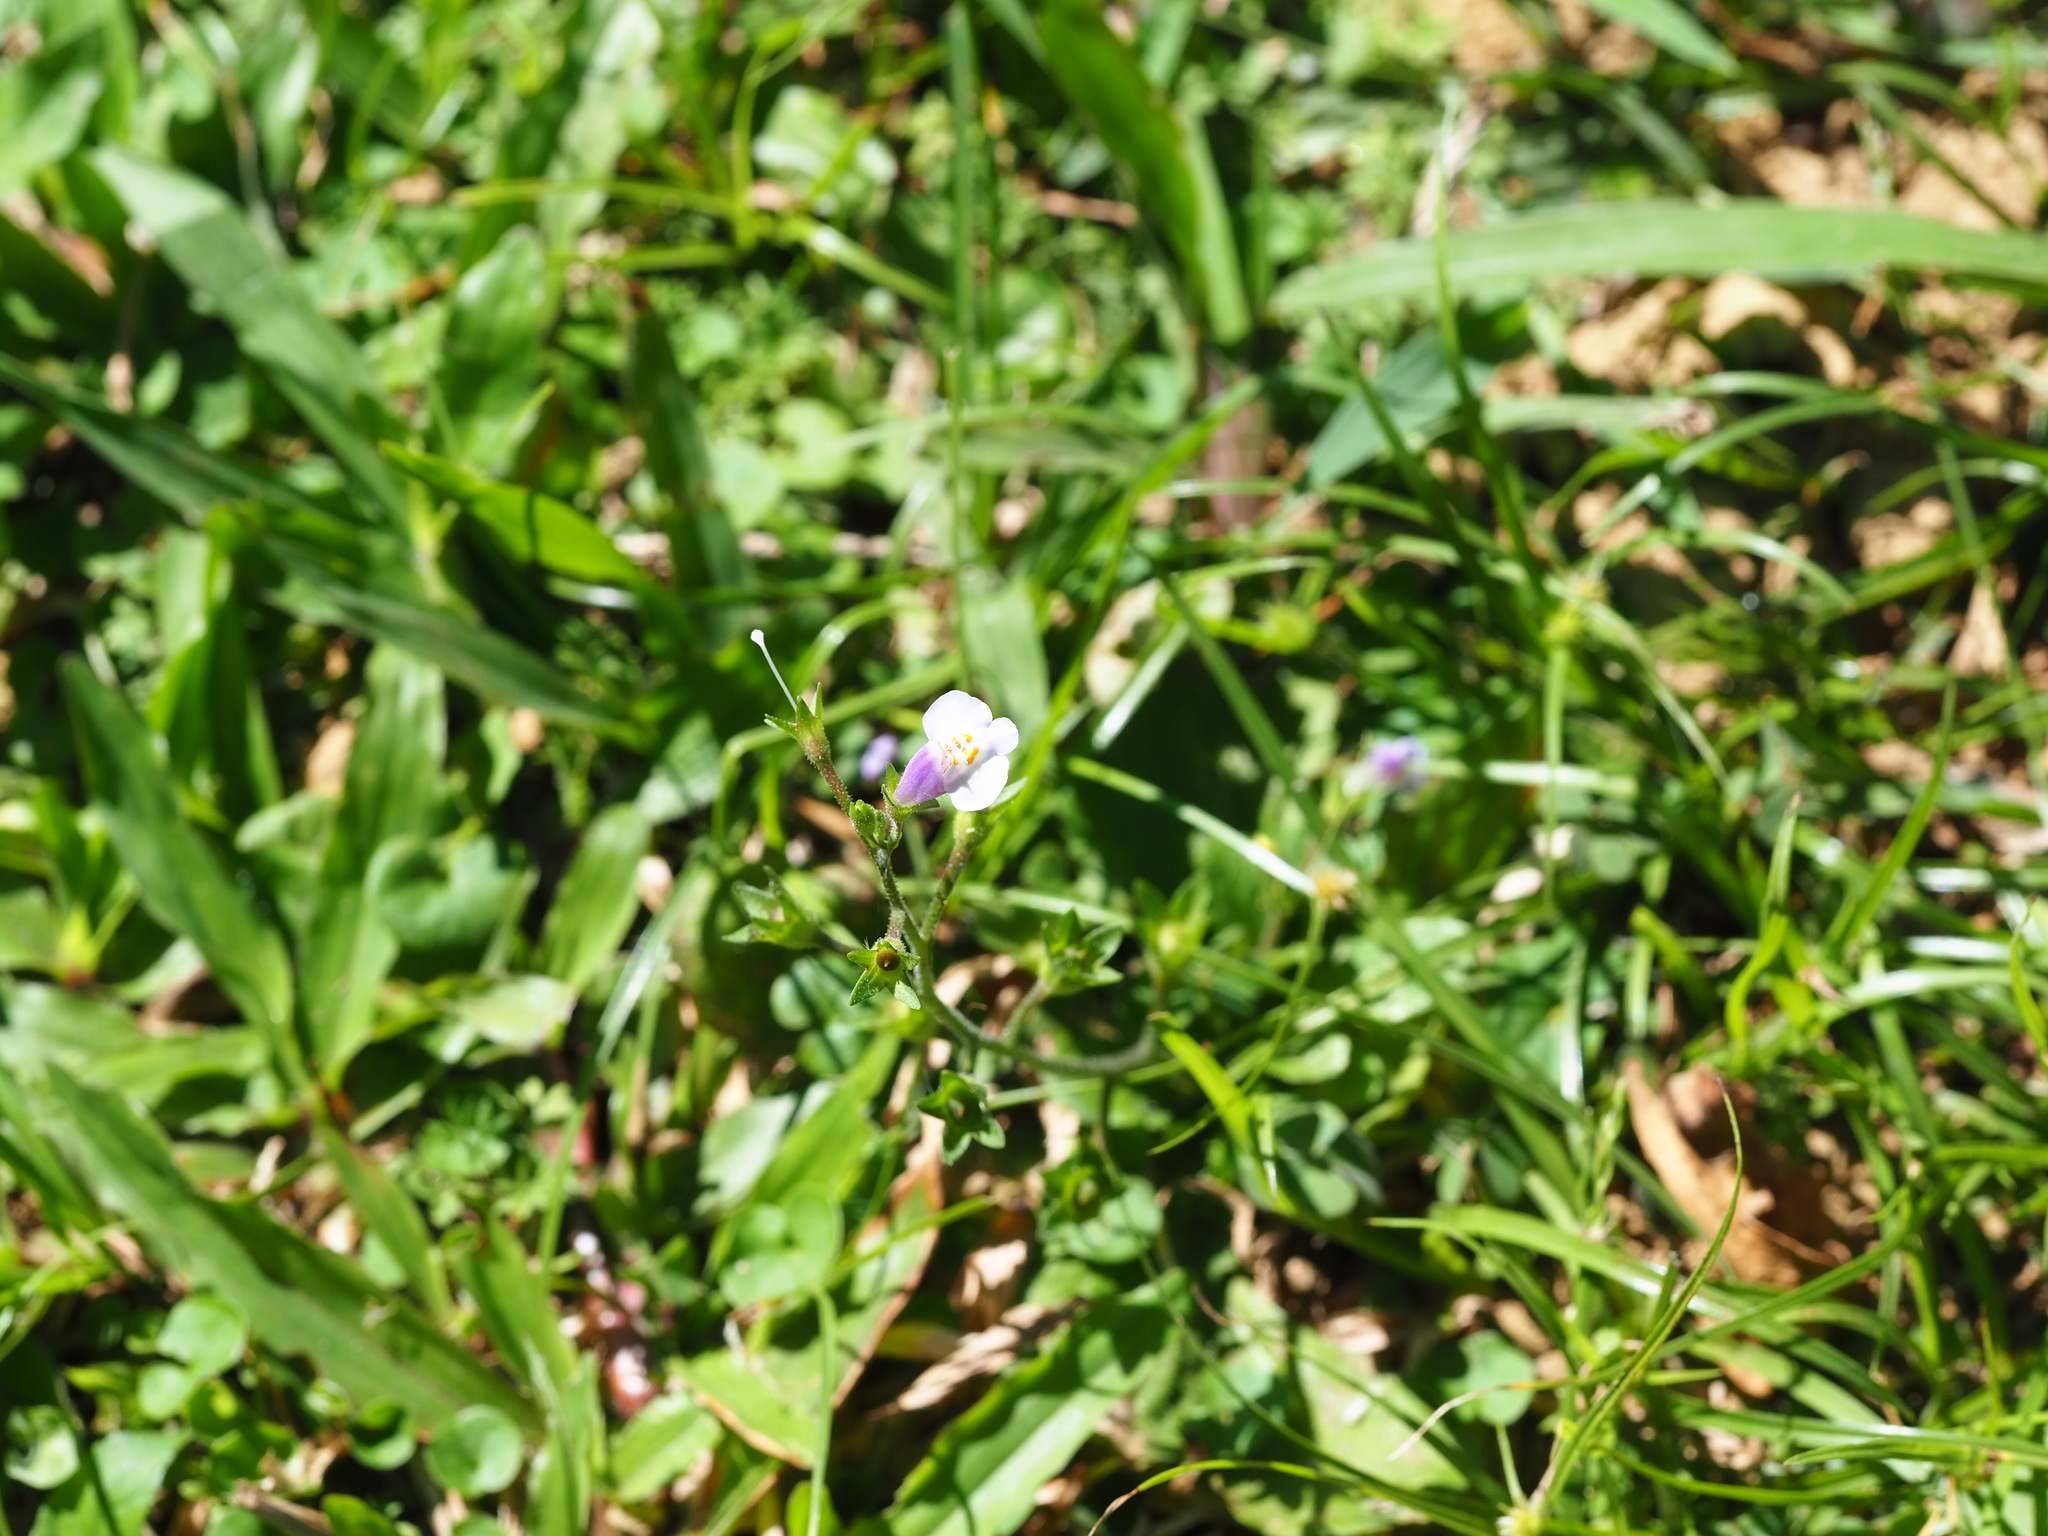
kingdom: Plantae
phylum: Tracheophyta
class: Magnoliopsida
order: Lamiales
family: Mazaceae
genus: Mazus
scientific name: Mazus fauriei
